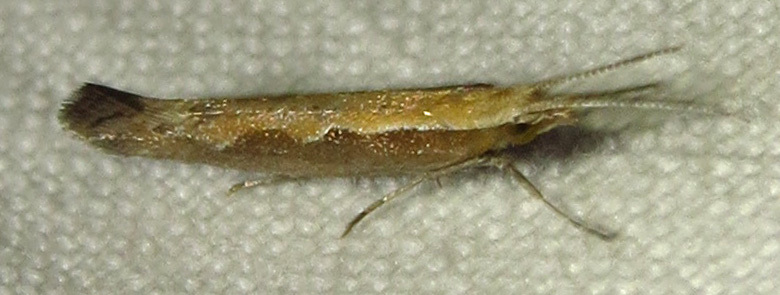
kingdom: Animalia
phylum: Arthropoda
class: Insecta
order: Lepidoptera
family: Plutellidae
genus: Plutella
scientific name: Plutella xylostella
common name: Diamond-back moth
